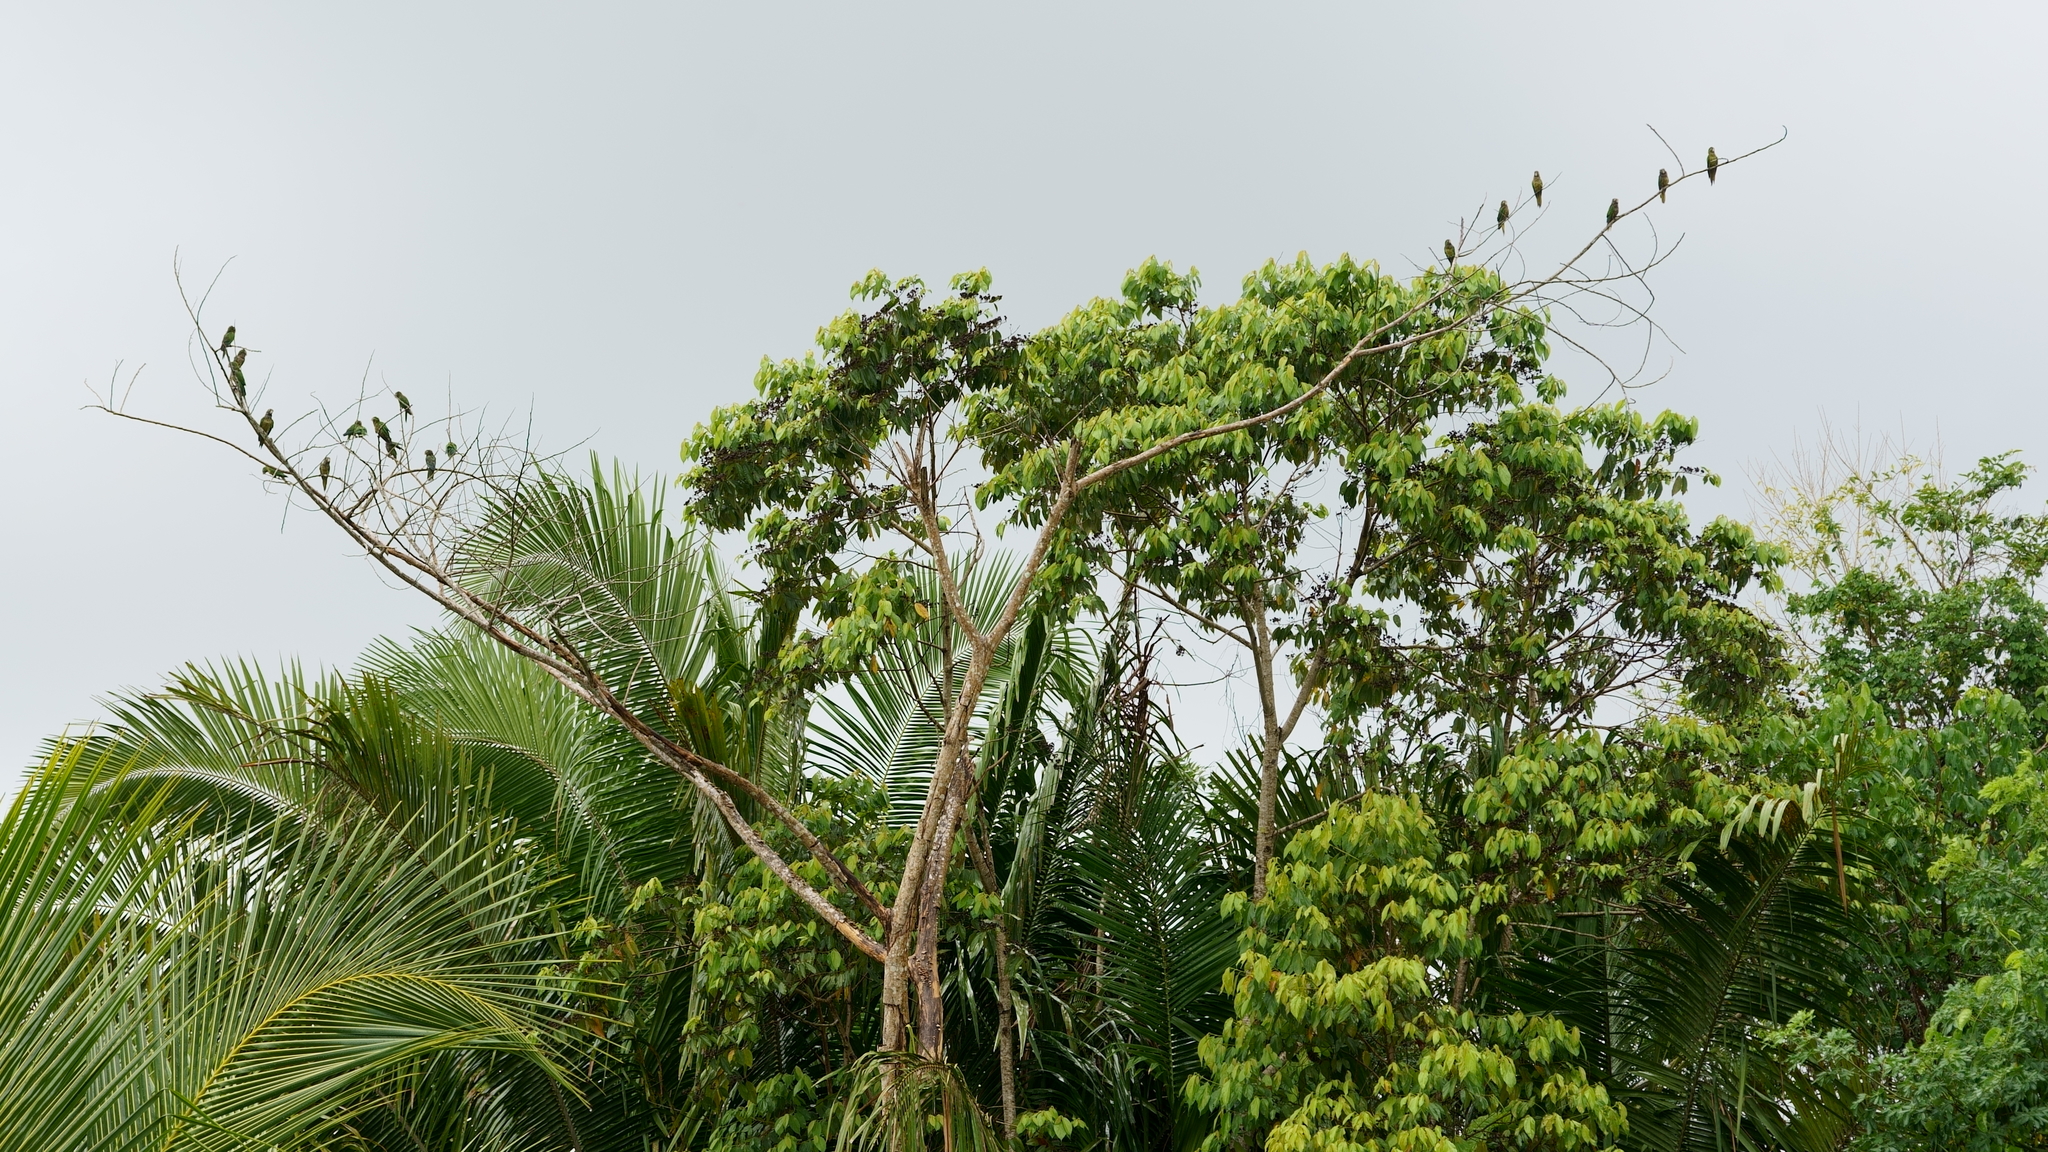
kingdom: Animalia
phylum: Chordata
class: Aves
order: Psittaciformes
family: Psittacidae
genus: Aratinga
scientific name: Aratinga nana
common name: Olive-throated parakeet
